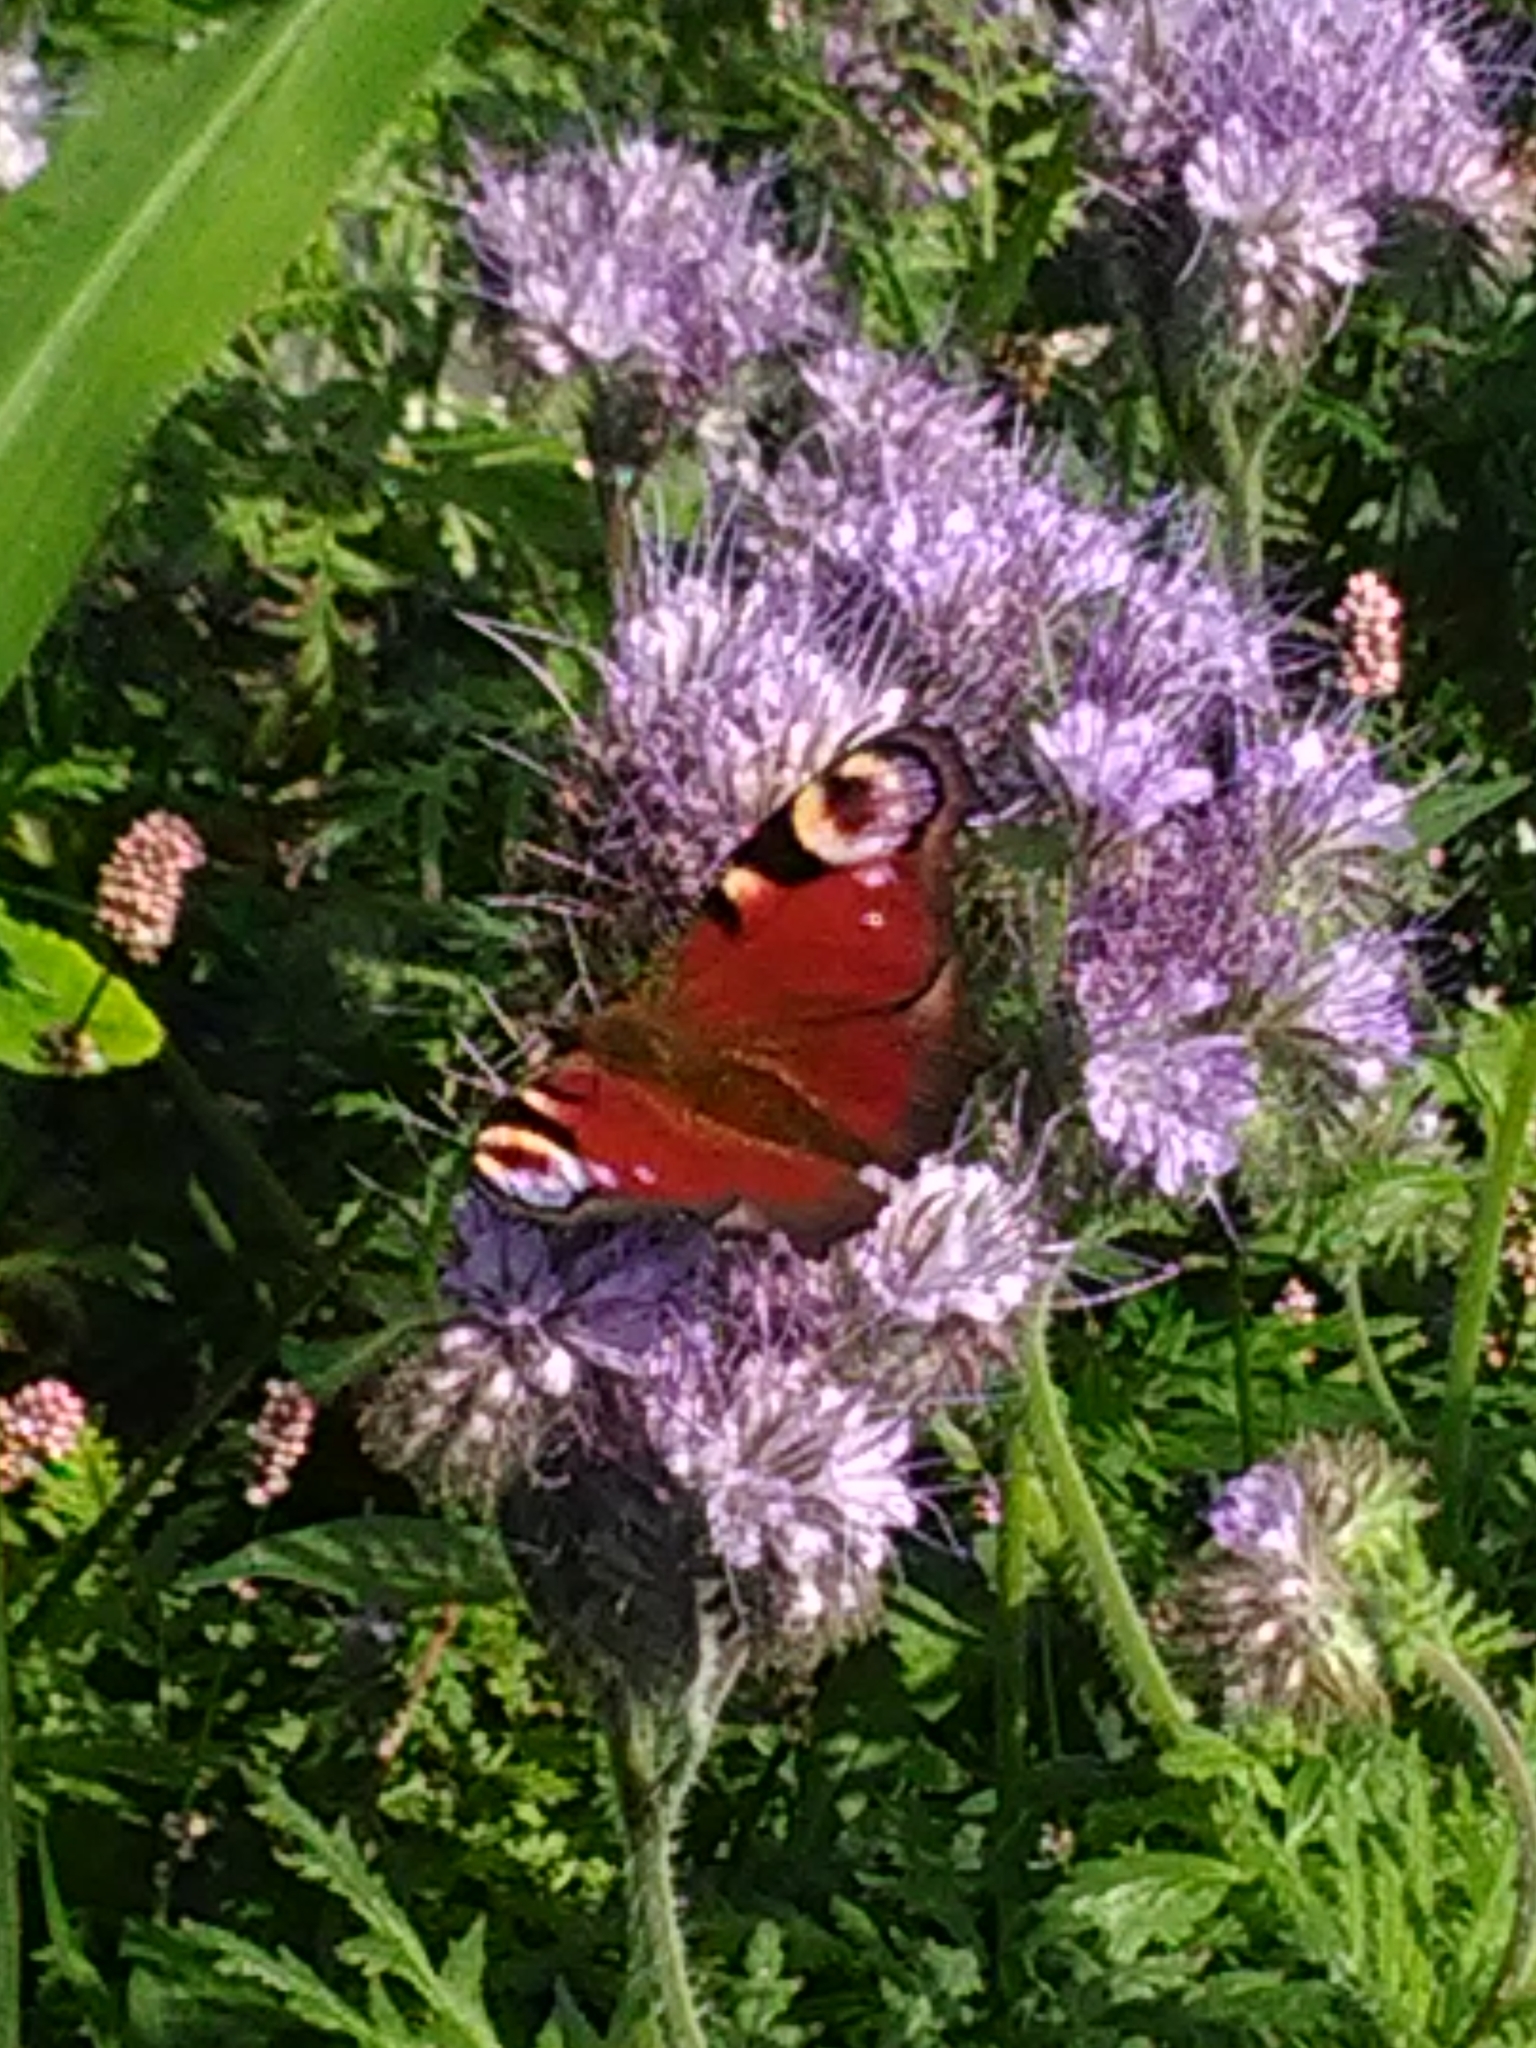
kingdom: Animalia
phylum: Arthropoda
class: Insecta
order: Lepidoptera
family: Nymphalidae
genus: Aglais
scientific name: Aglais io
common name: Peacock
